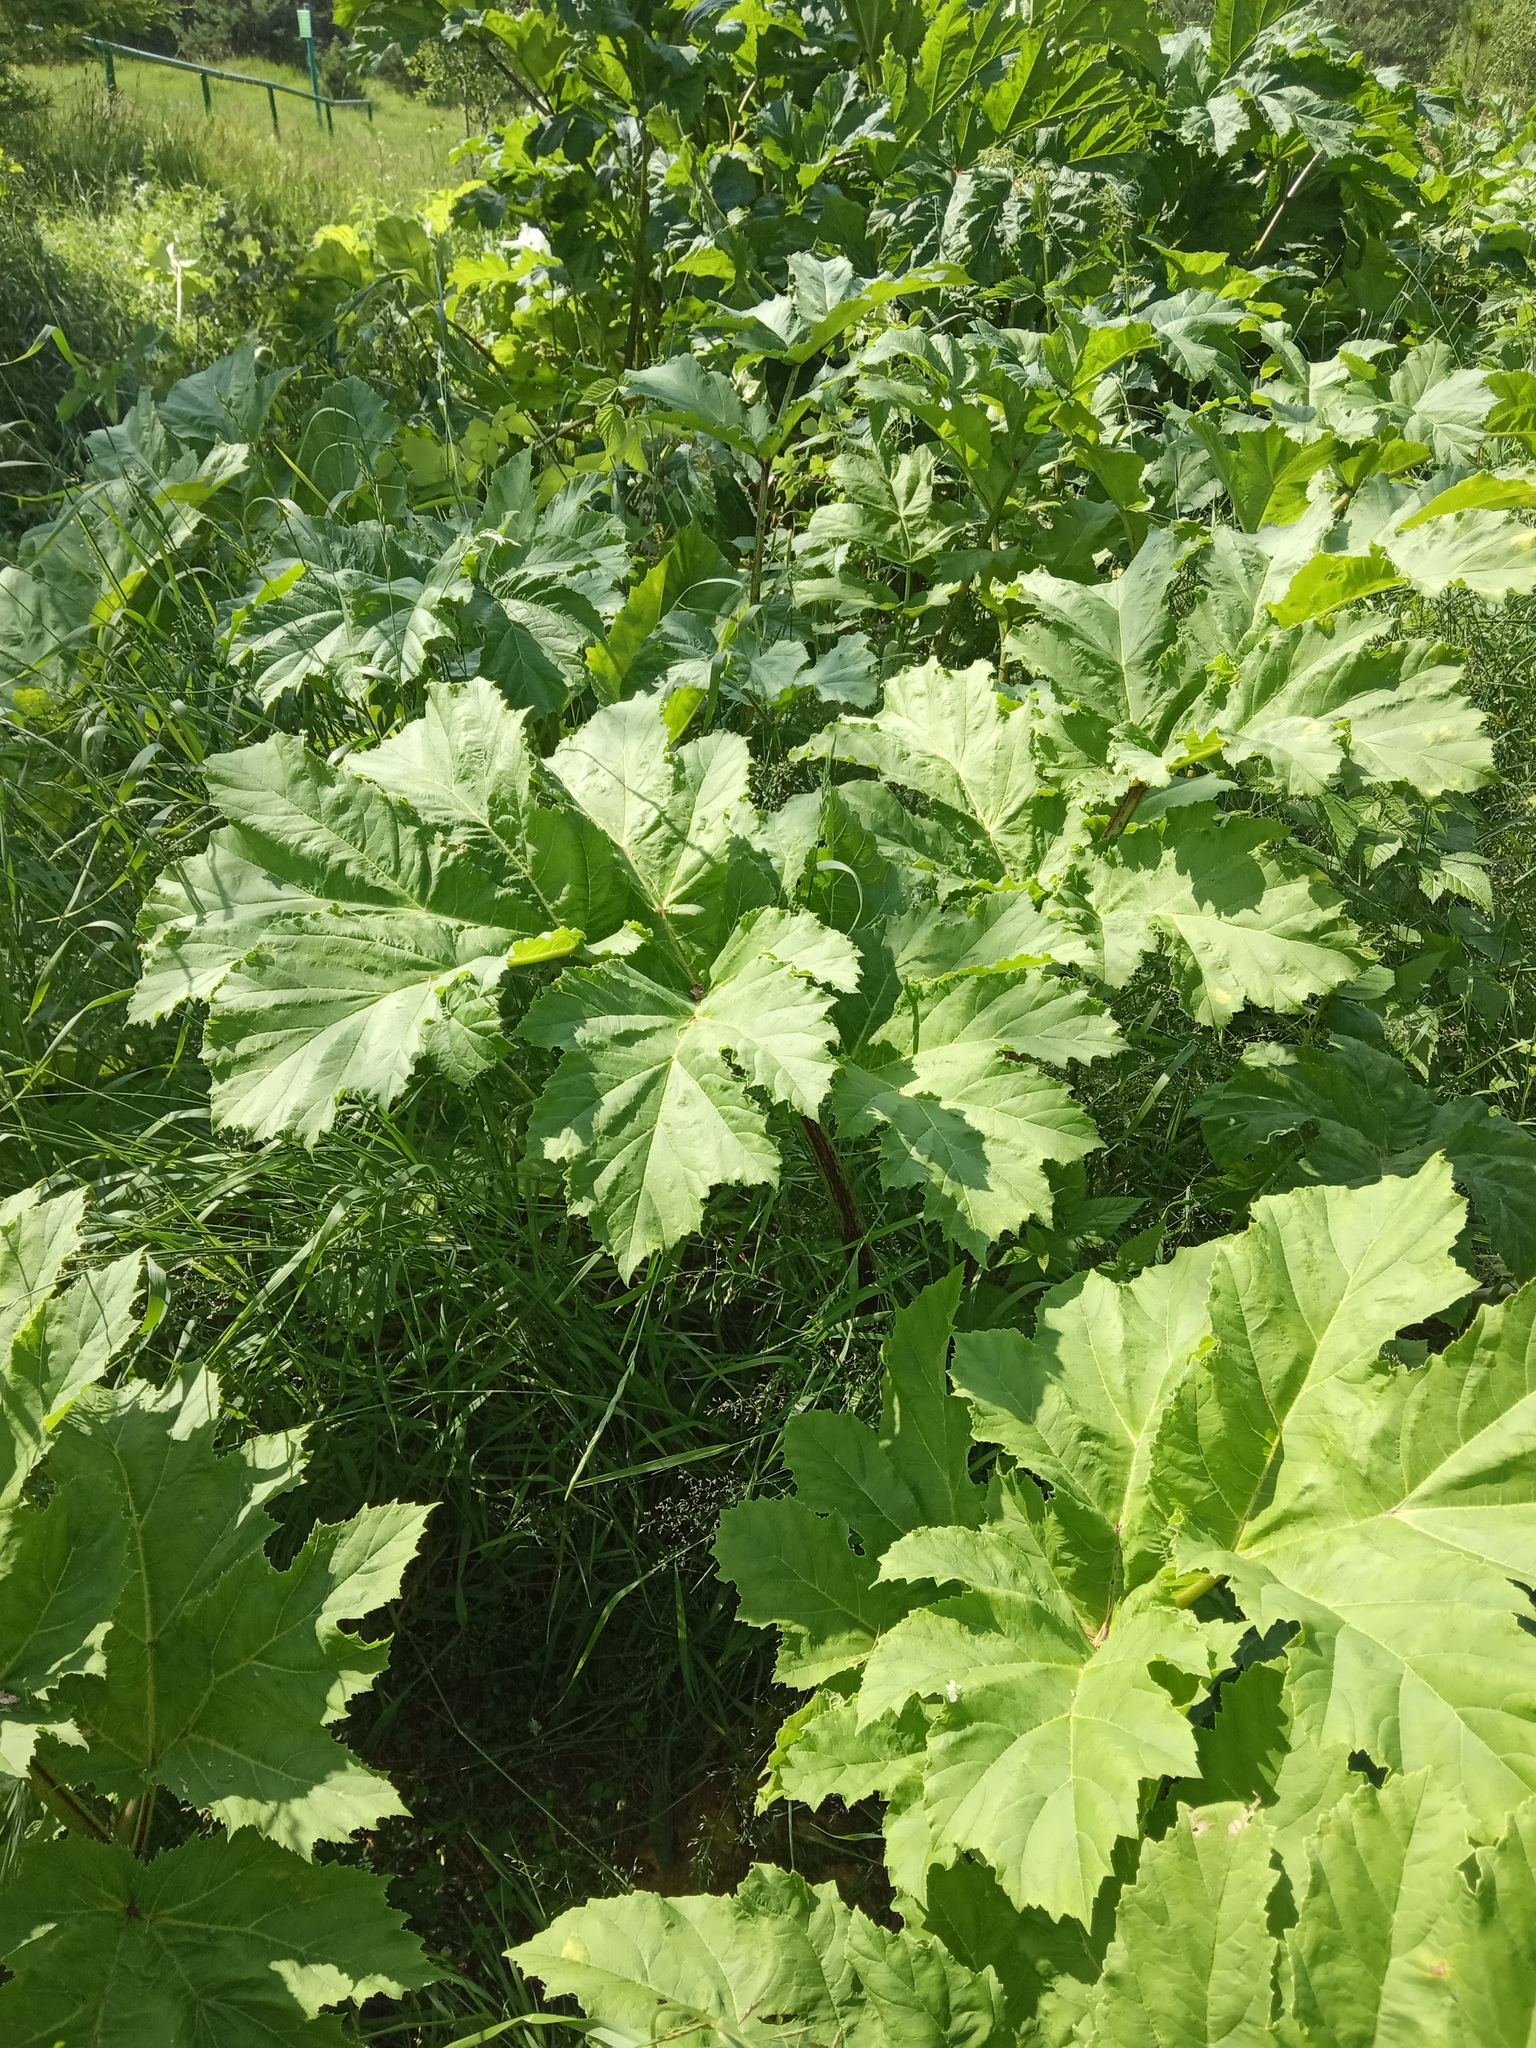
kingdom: Plantae
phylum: Tracheophyta
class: Magnoliopsida
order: Apiales
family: Apiaceae
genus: Heracleum
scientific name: Heracleum sosnowskyi
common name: Sosnowsky's hogweed
